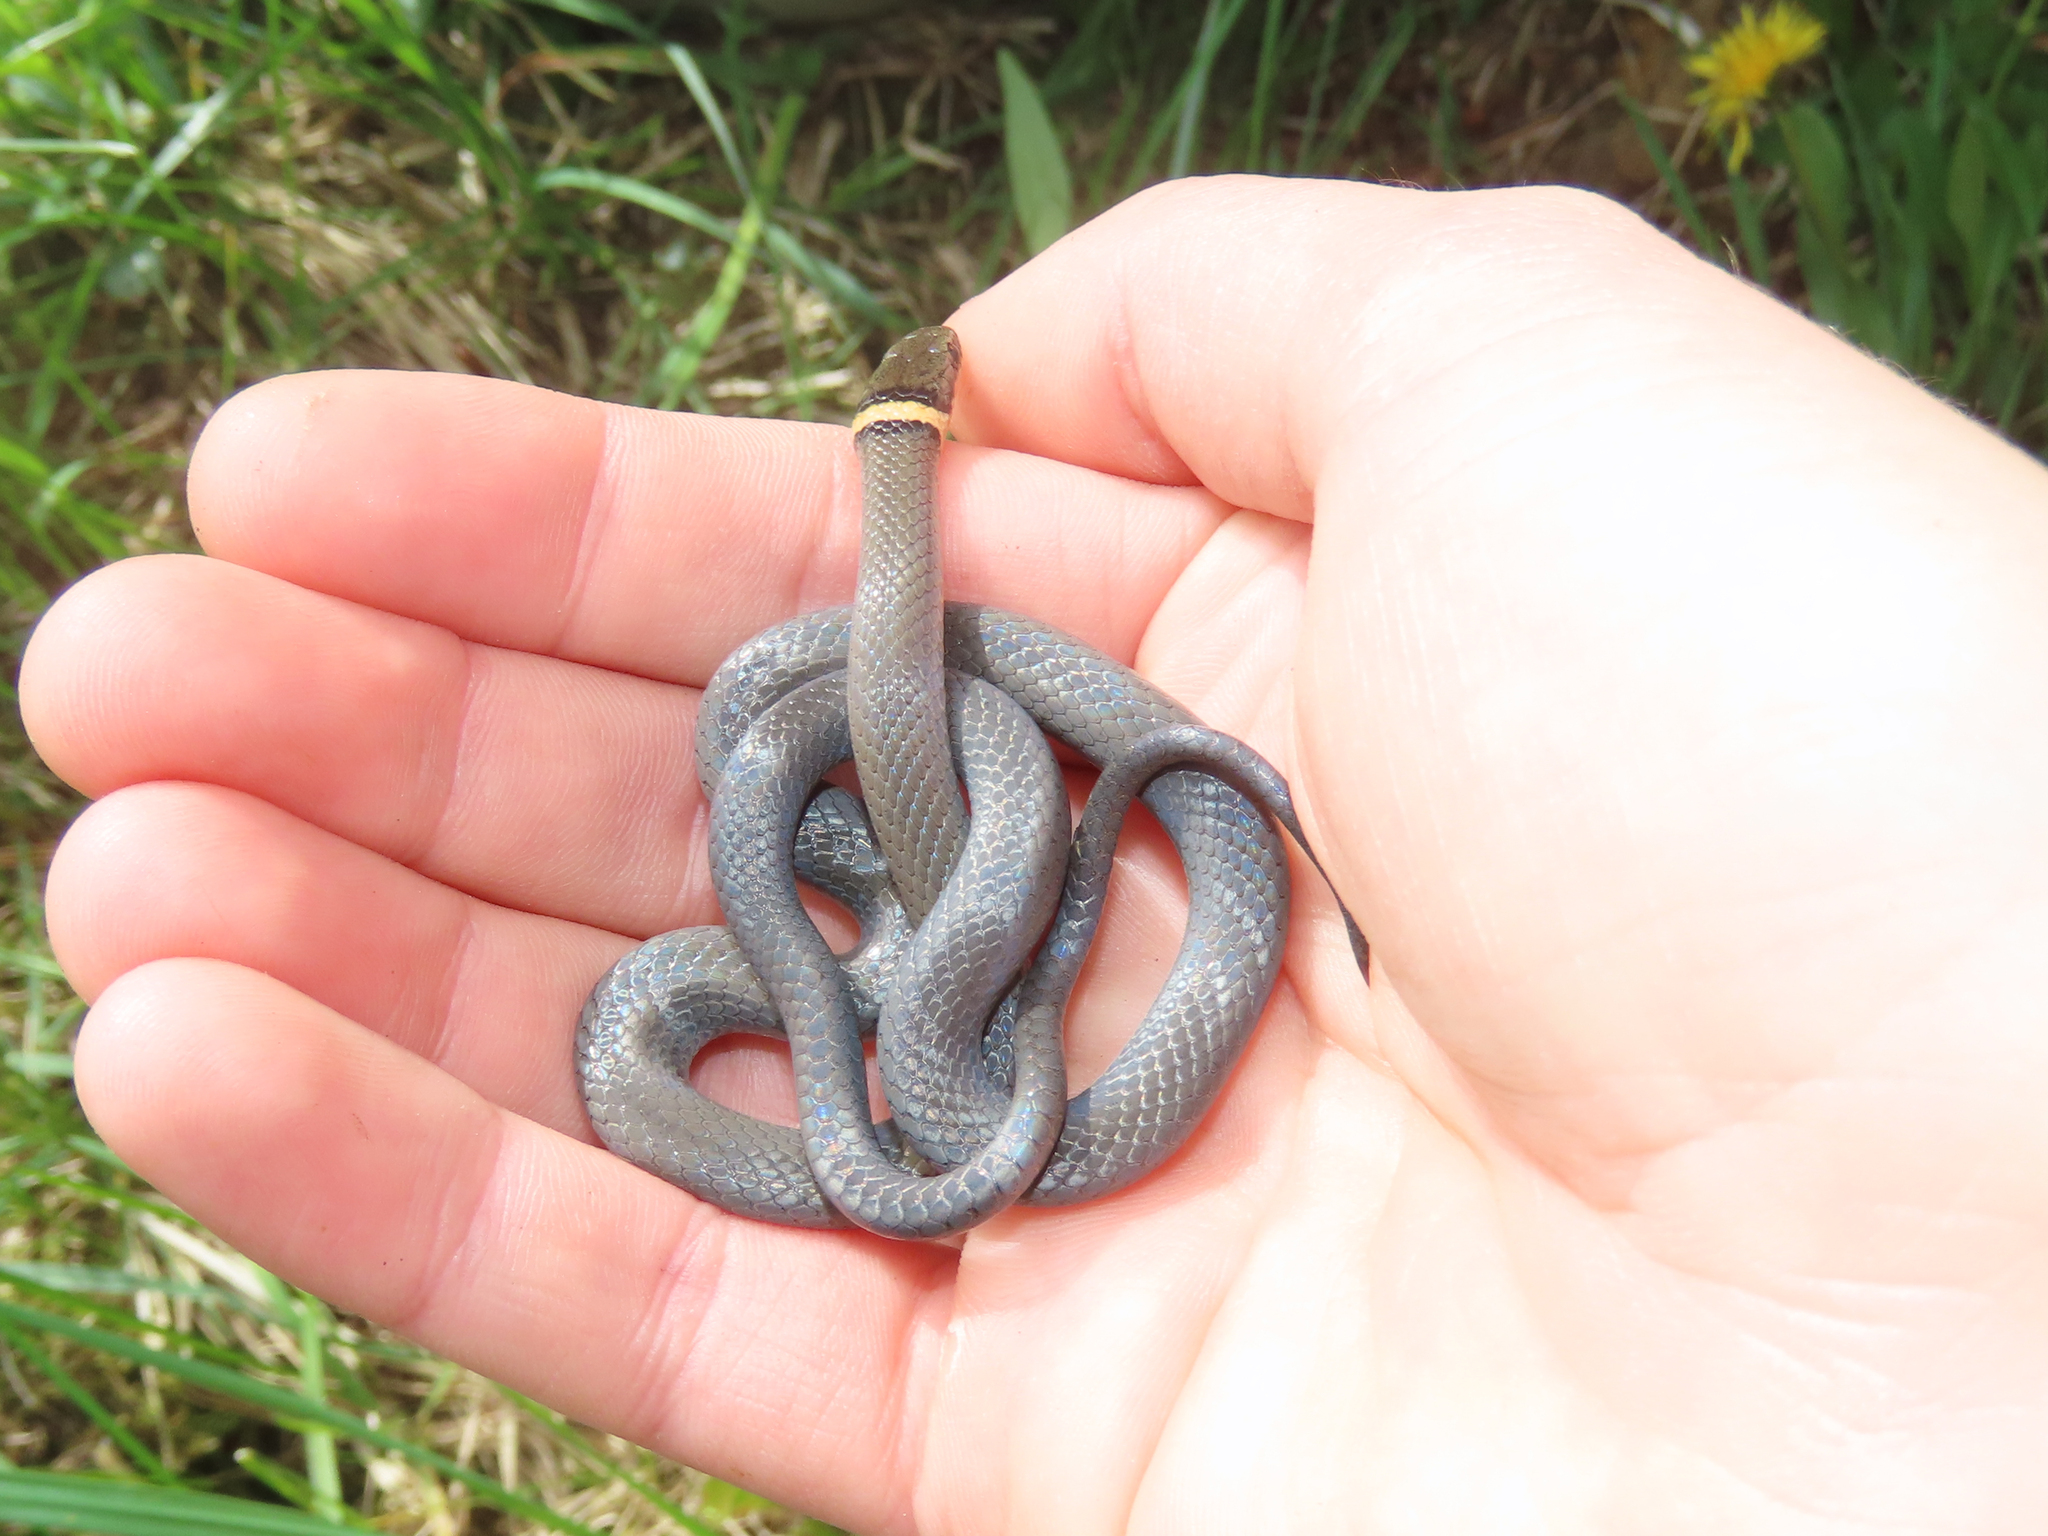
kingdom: Animalia
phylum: Chordata
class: Squamata
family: Colubridae
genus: Diadophis
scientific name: Diadophis punctatus
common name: Ringneck snake
